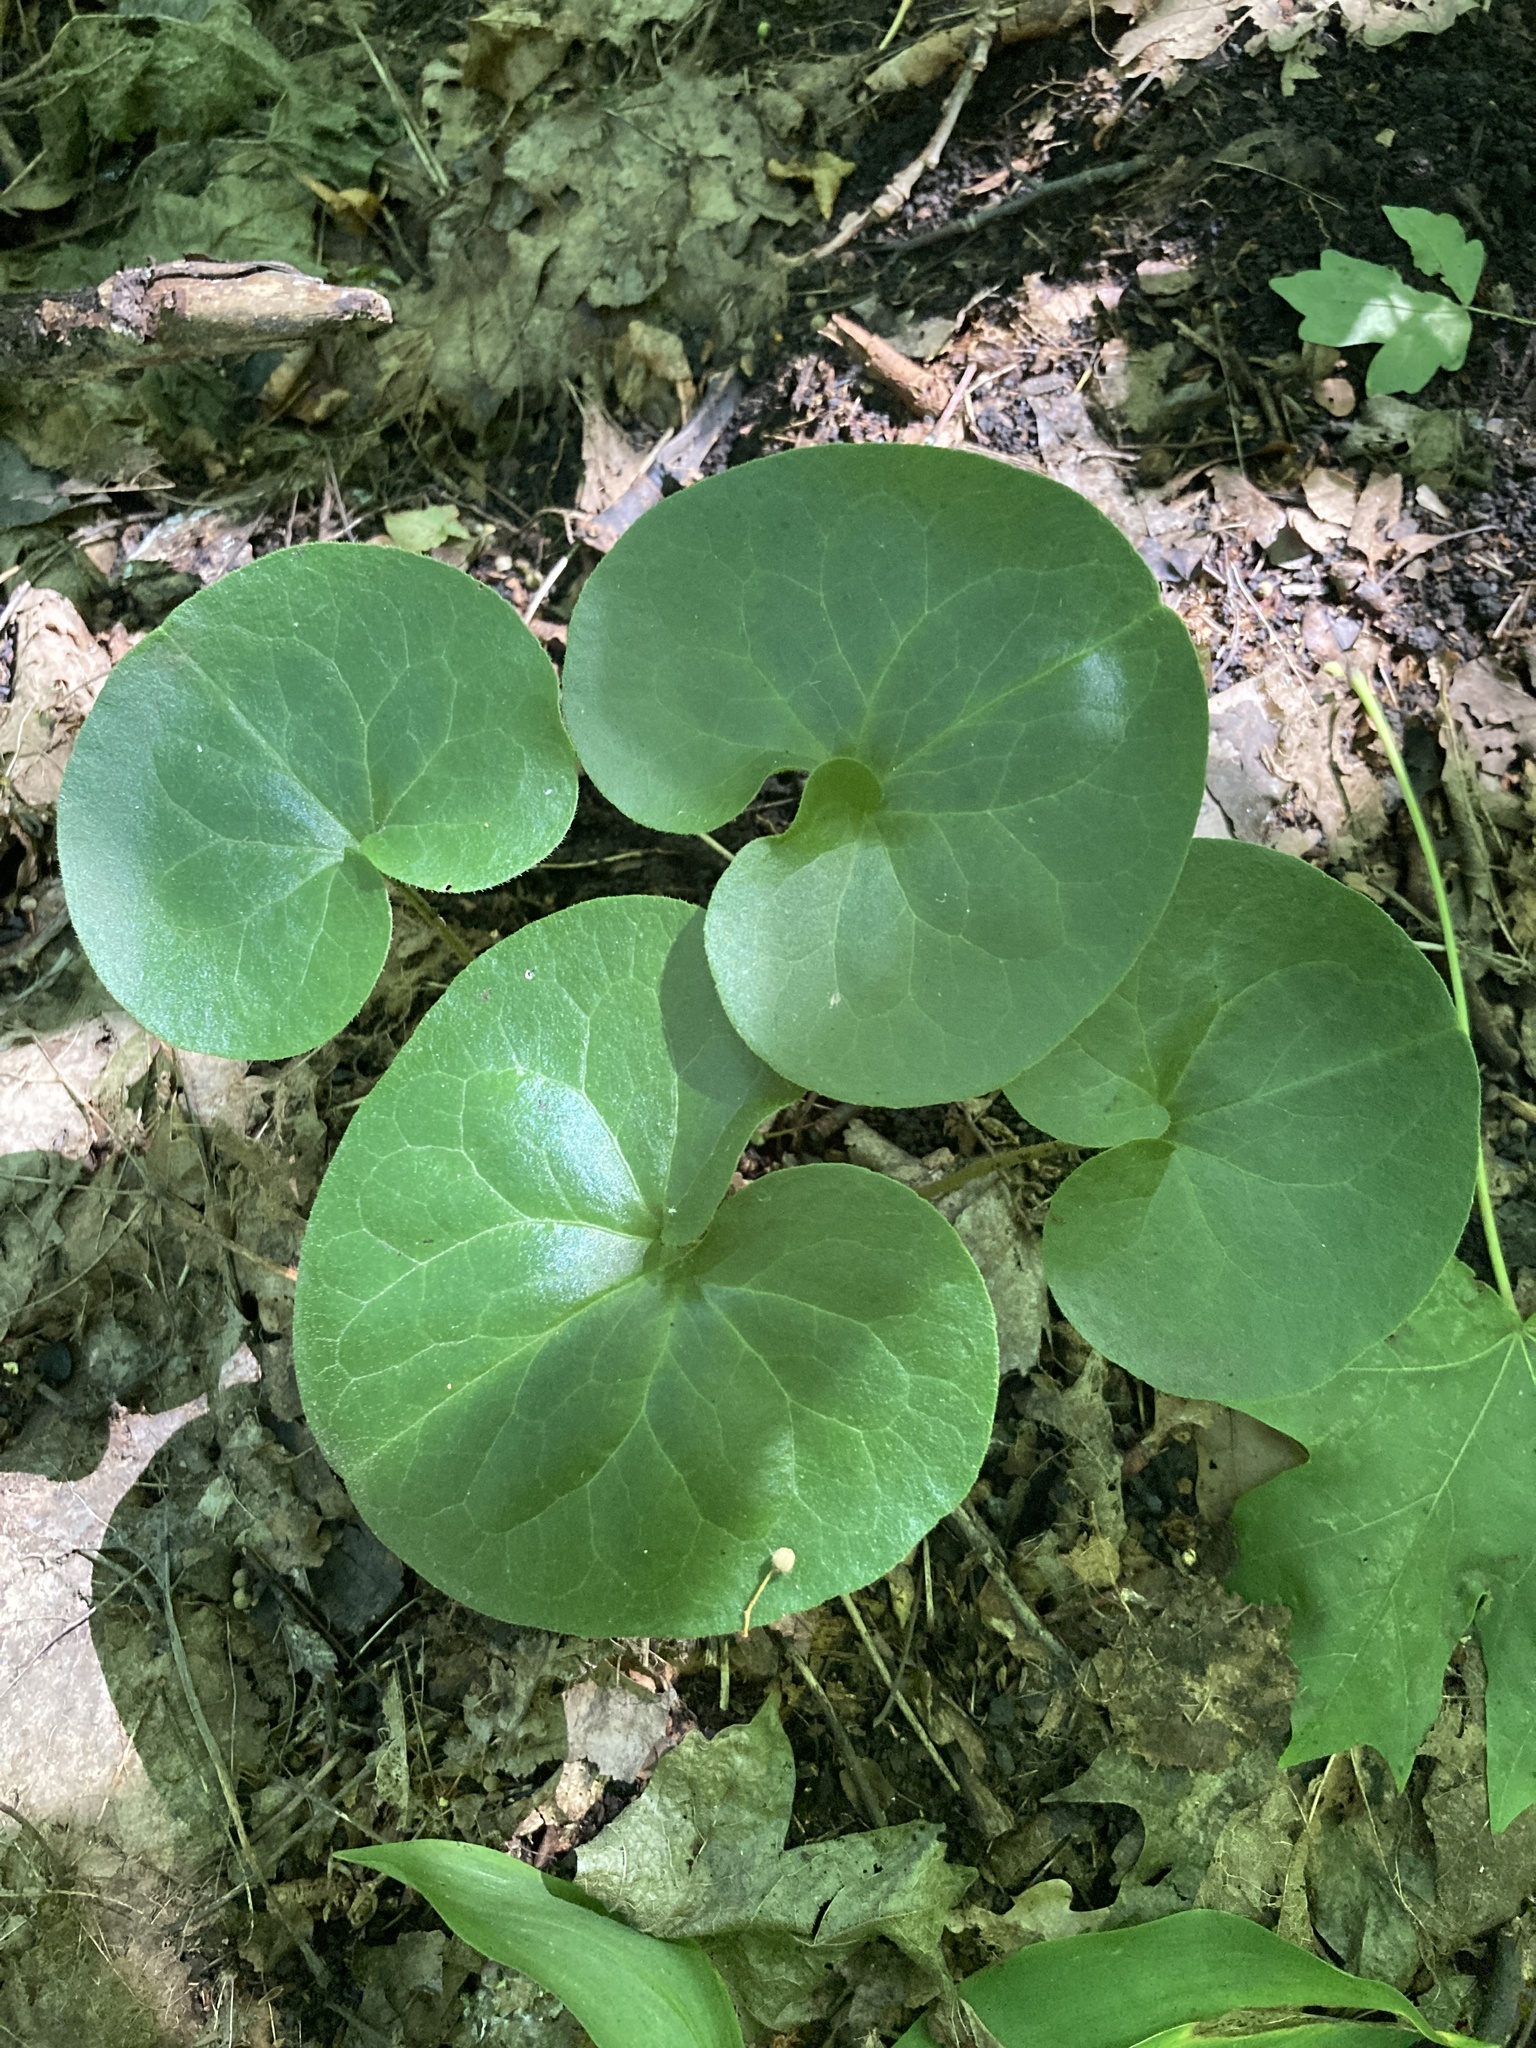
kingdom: Plantae
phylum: Tracheophyta
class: Magnoliopsida
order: Piperales
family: Aristolochiaceae
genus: Asarum
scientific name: Asarum europaeum
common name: Asarabacca
